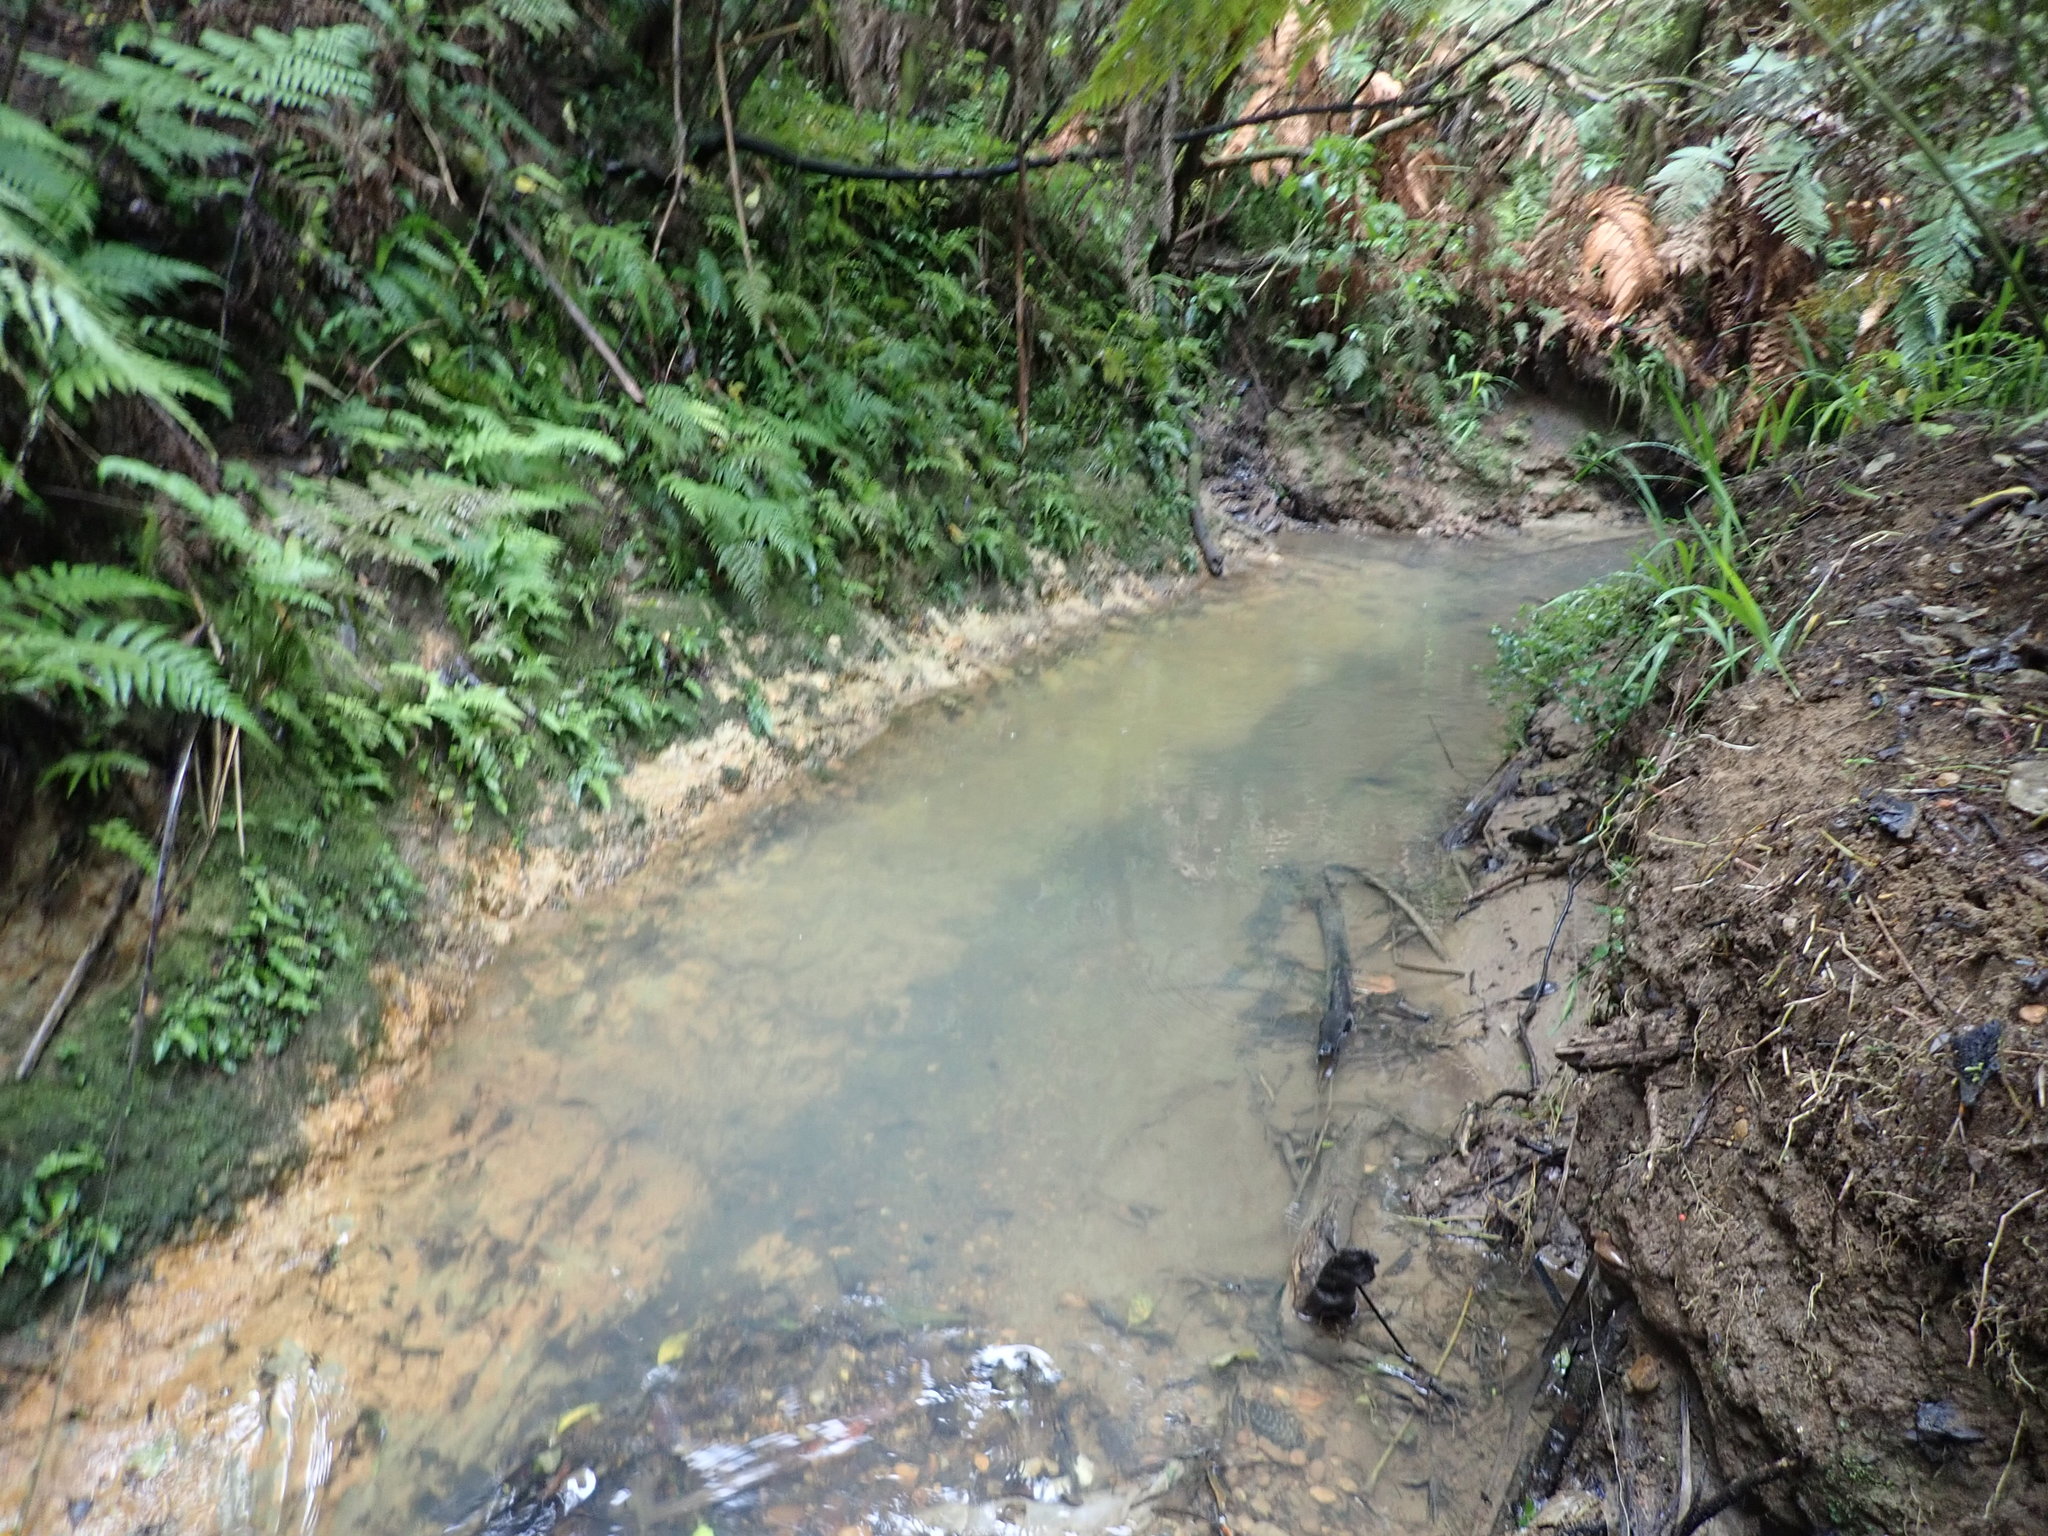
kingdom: Plantae
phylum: Tracheophyta
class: Liliopsida
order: Commelinales
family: Commelinaceae
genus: Tradescantia
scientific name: Tradescantia fluminensis
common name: Wandering-jew
